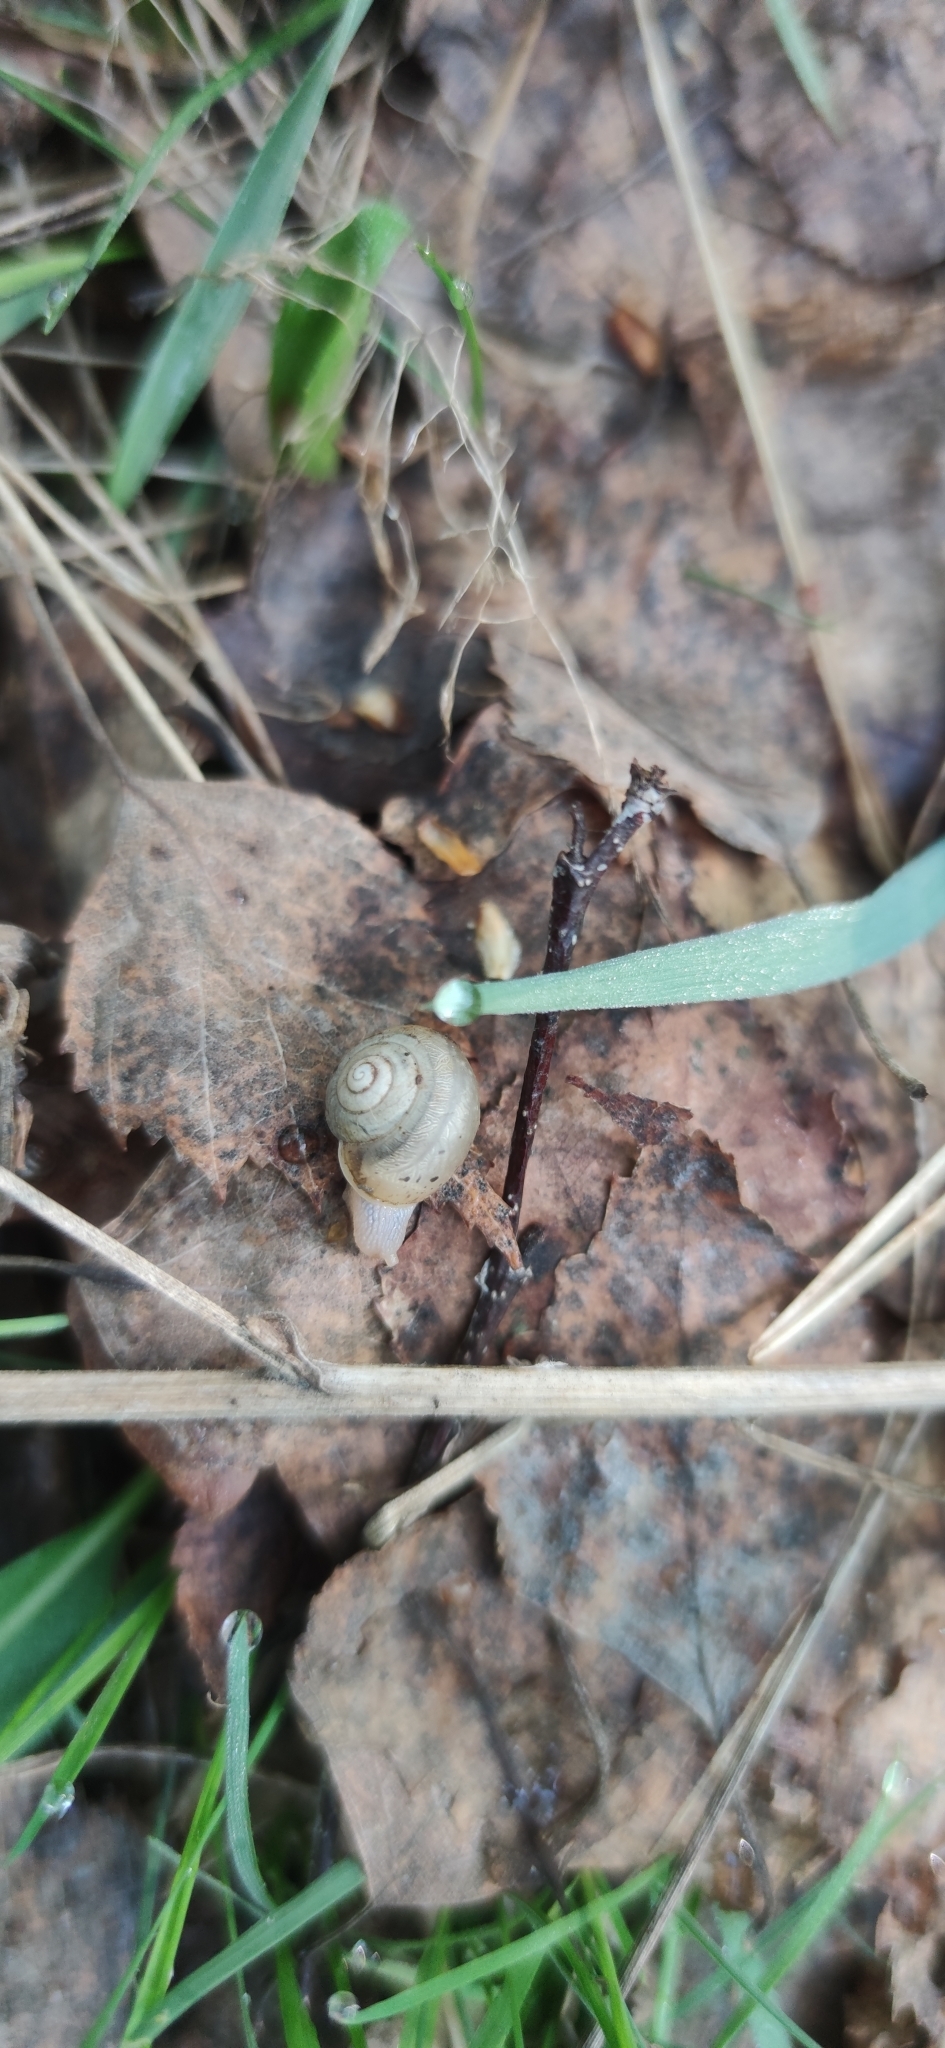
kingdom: Animalia
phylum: Mollusca
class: Gastropoda
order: Stylommatophora
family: Camaenidae
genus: Fruticicola
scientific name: Fruticicola fruticum
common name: Bush snail
